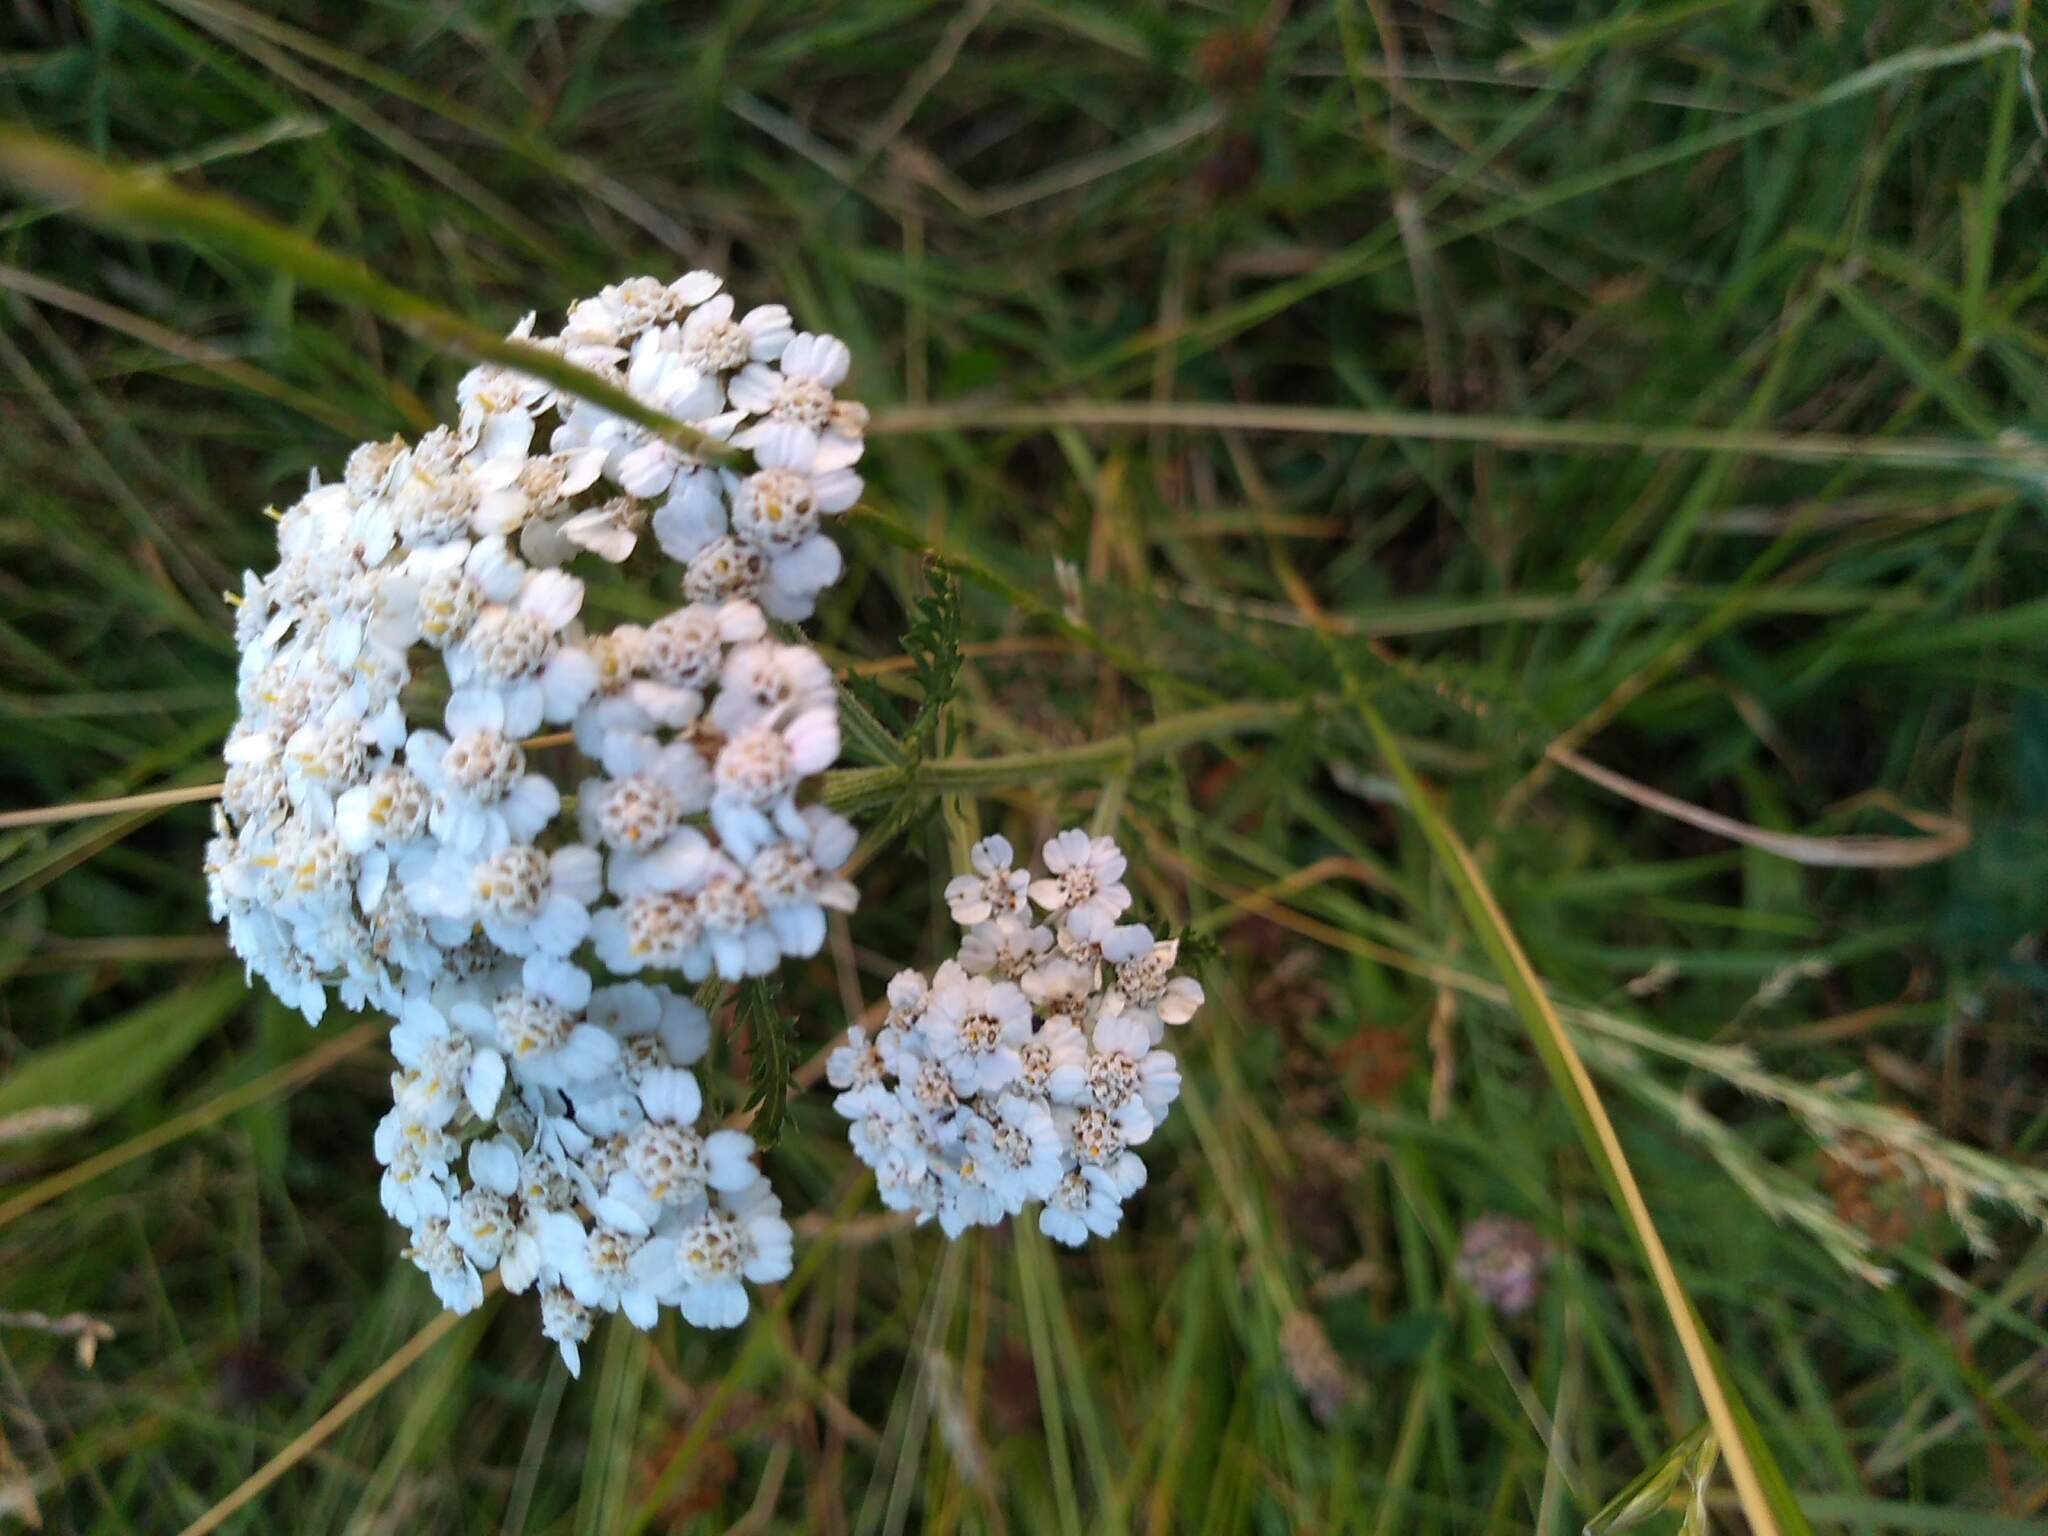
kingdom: Plantae
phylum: Tracheophyta
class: Magnoliopsida
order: Asterales
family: Asteraceae
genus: Achillea
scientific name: Achillea millefolium
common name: Yarrow
